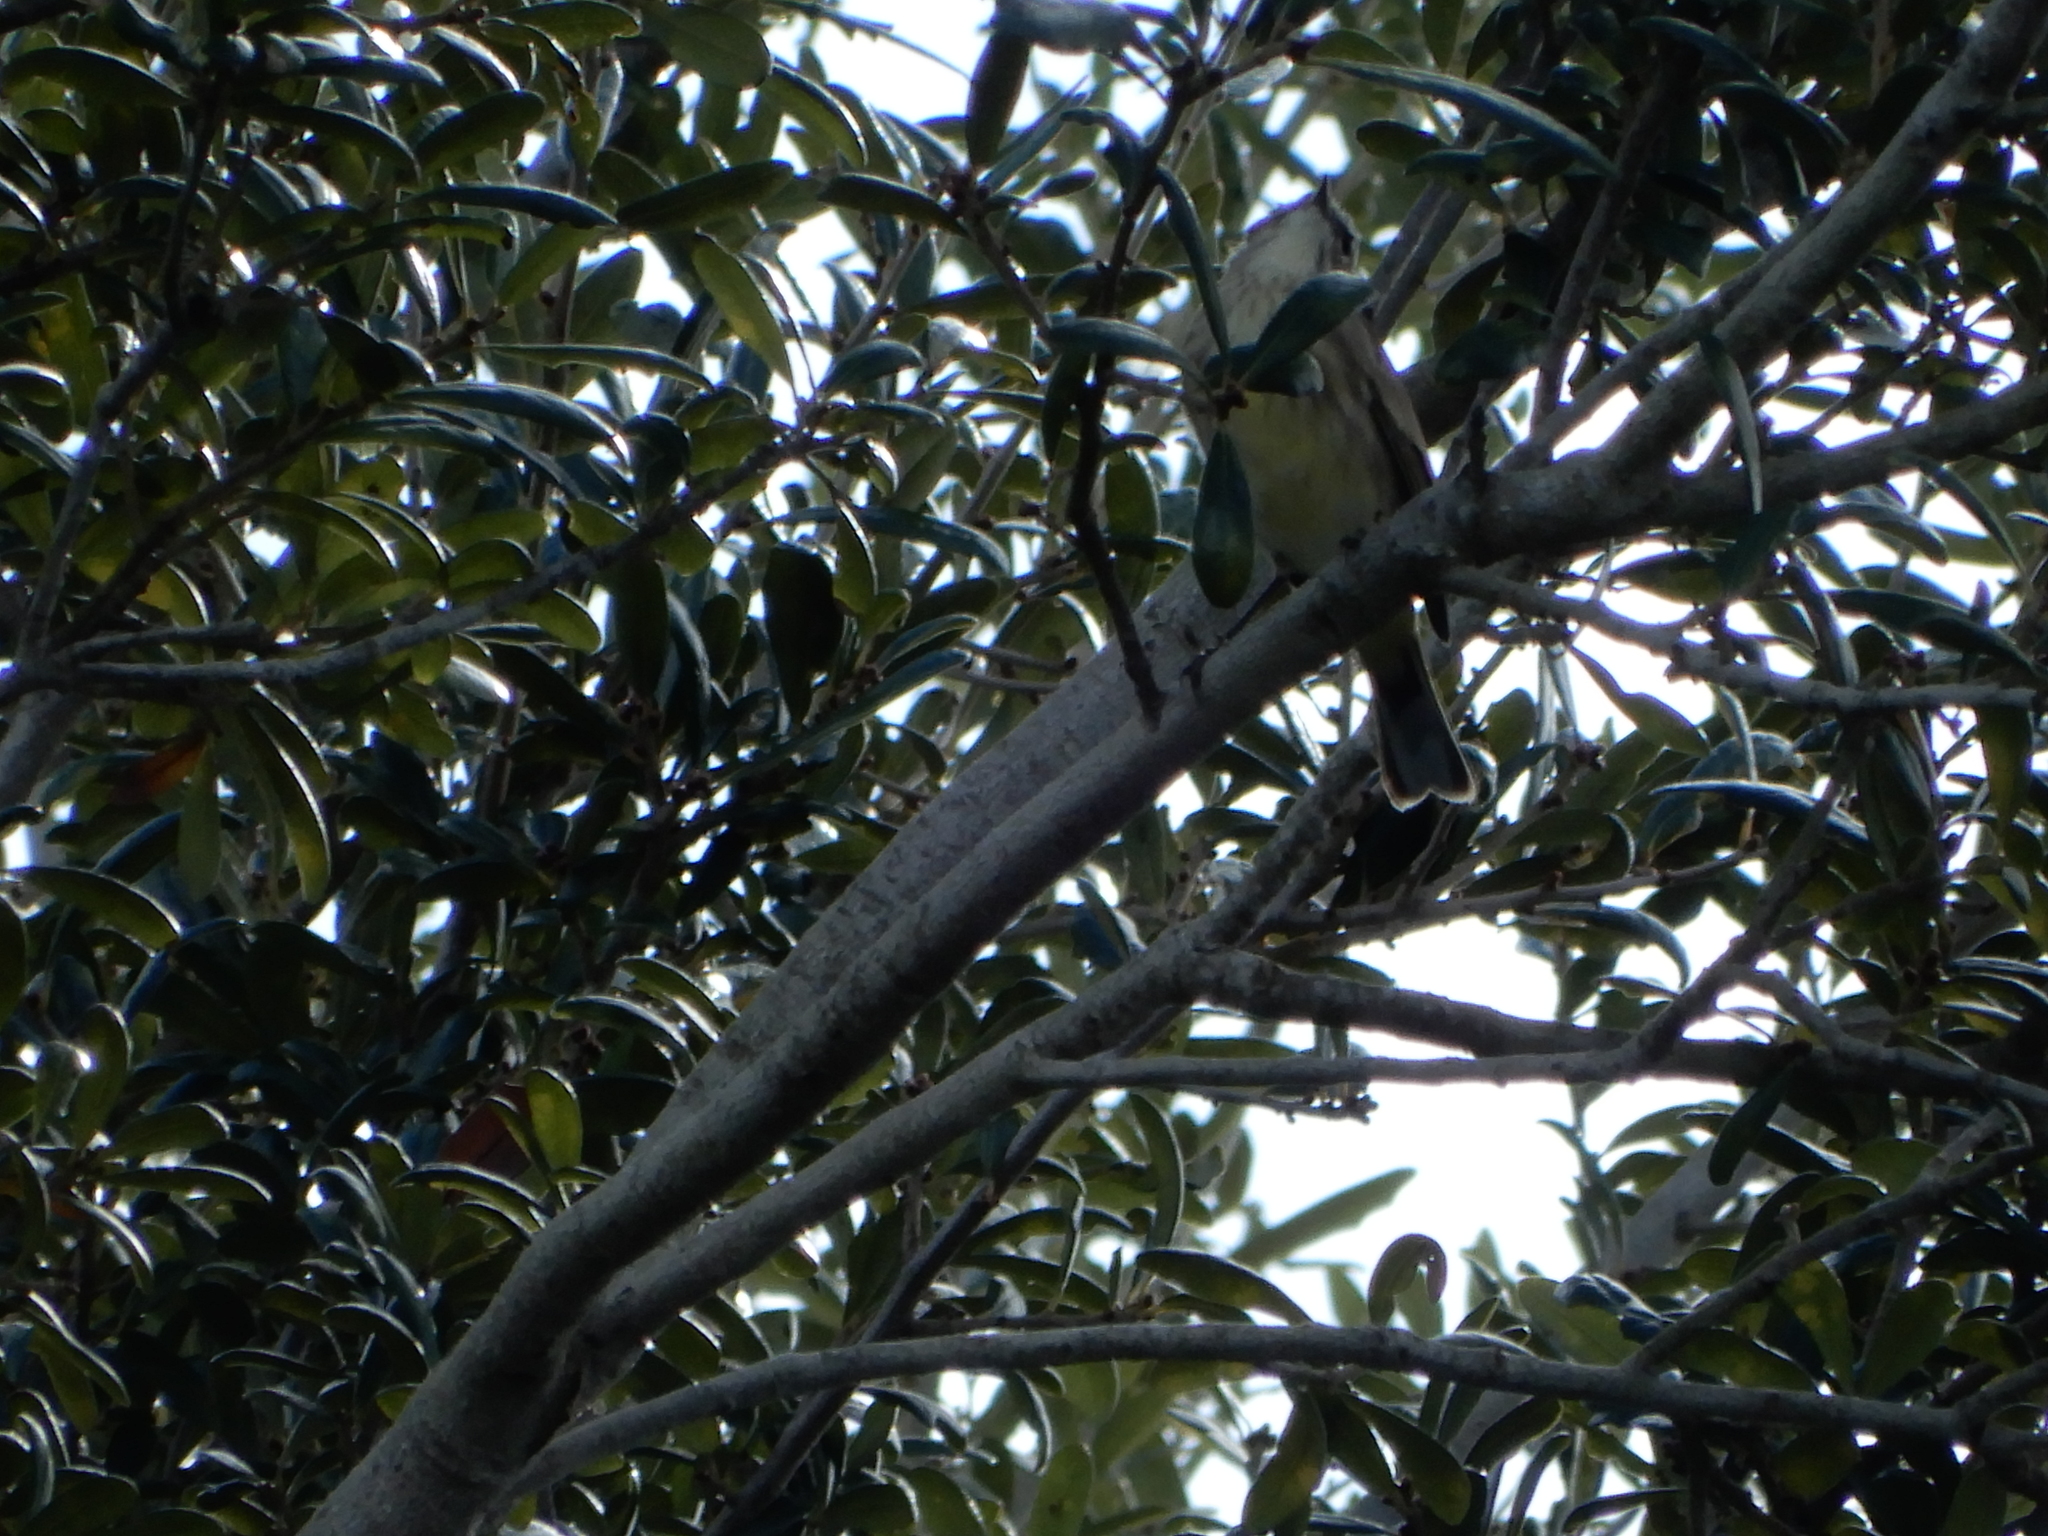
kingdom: Animalia
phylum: Chordata
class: Aves
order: Passeriformes
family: Parulidae
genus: Setophaga
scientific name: Setophaga palmarum
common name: Palm warbler
